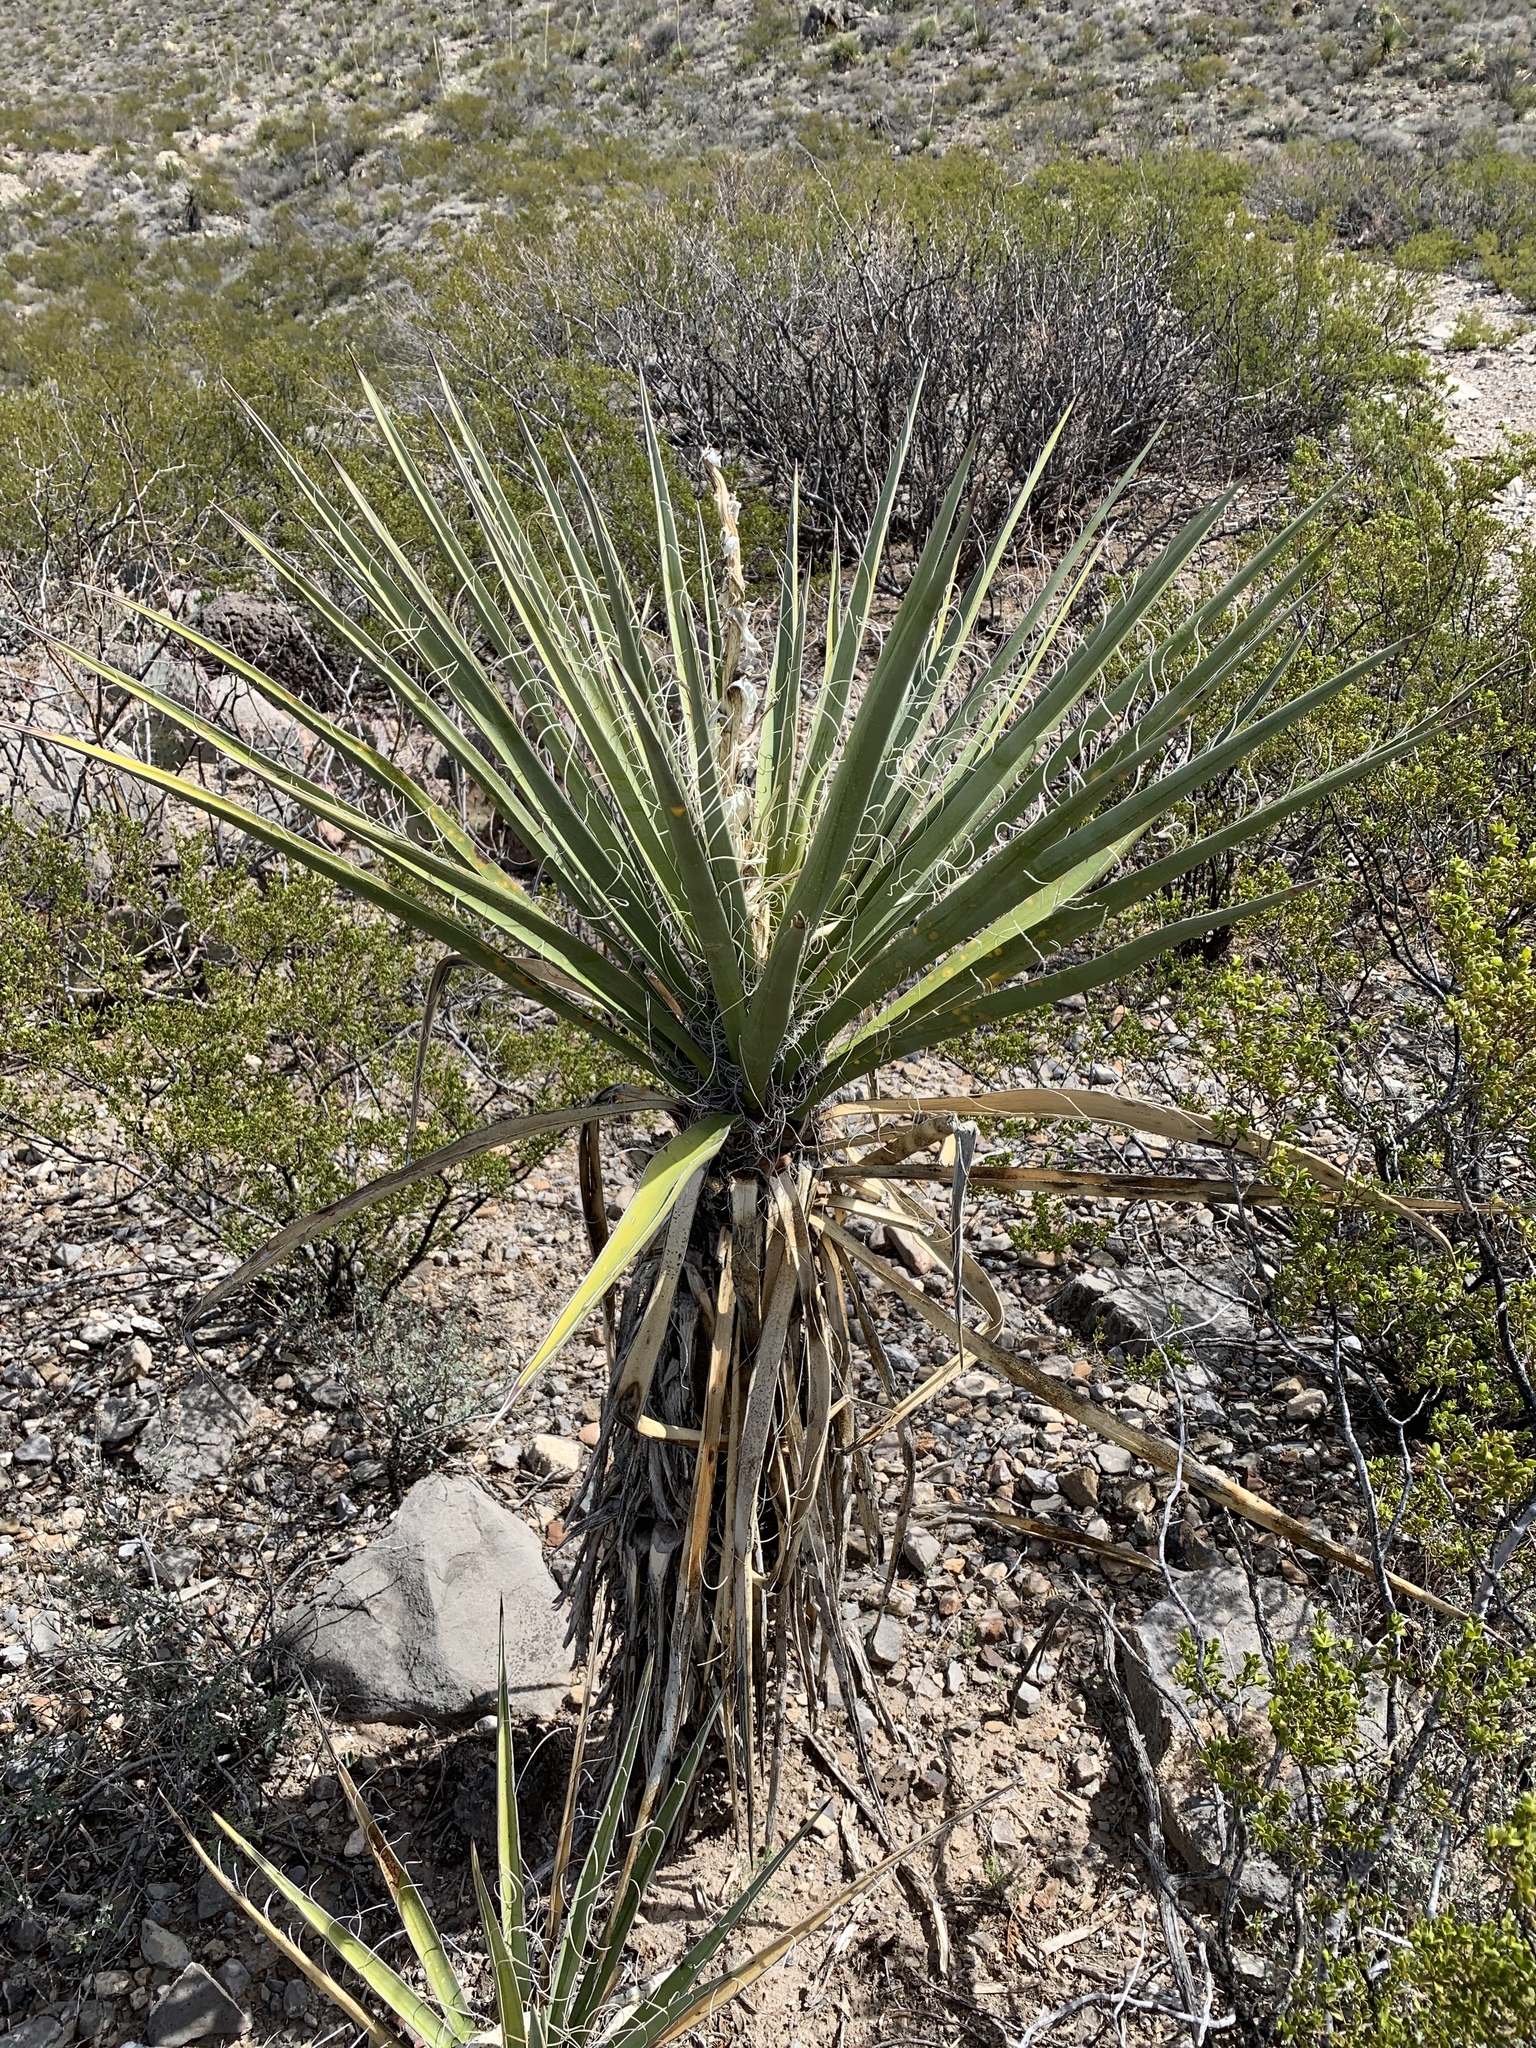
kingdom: Plantae
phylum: Tracheophyta
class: Liliopsida
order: Asparagales
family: Asparagaceae
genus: Yucca
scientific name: Yucca treculiana
